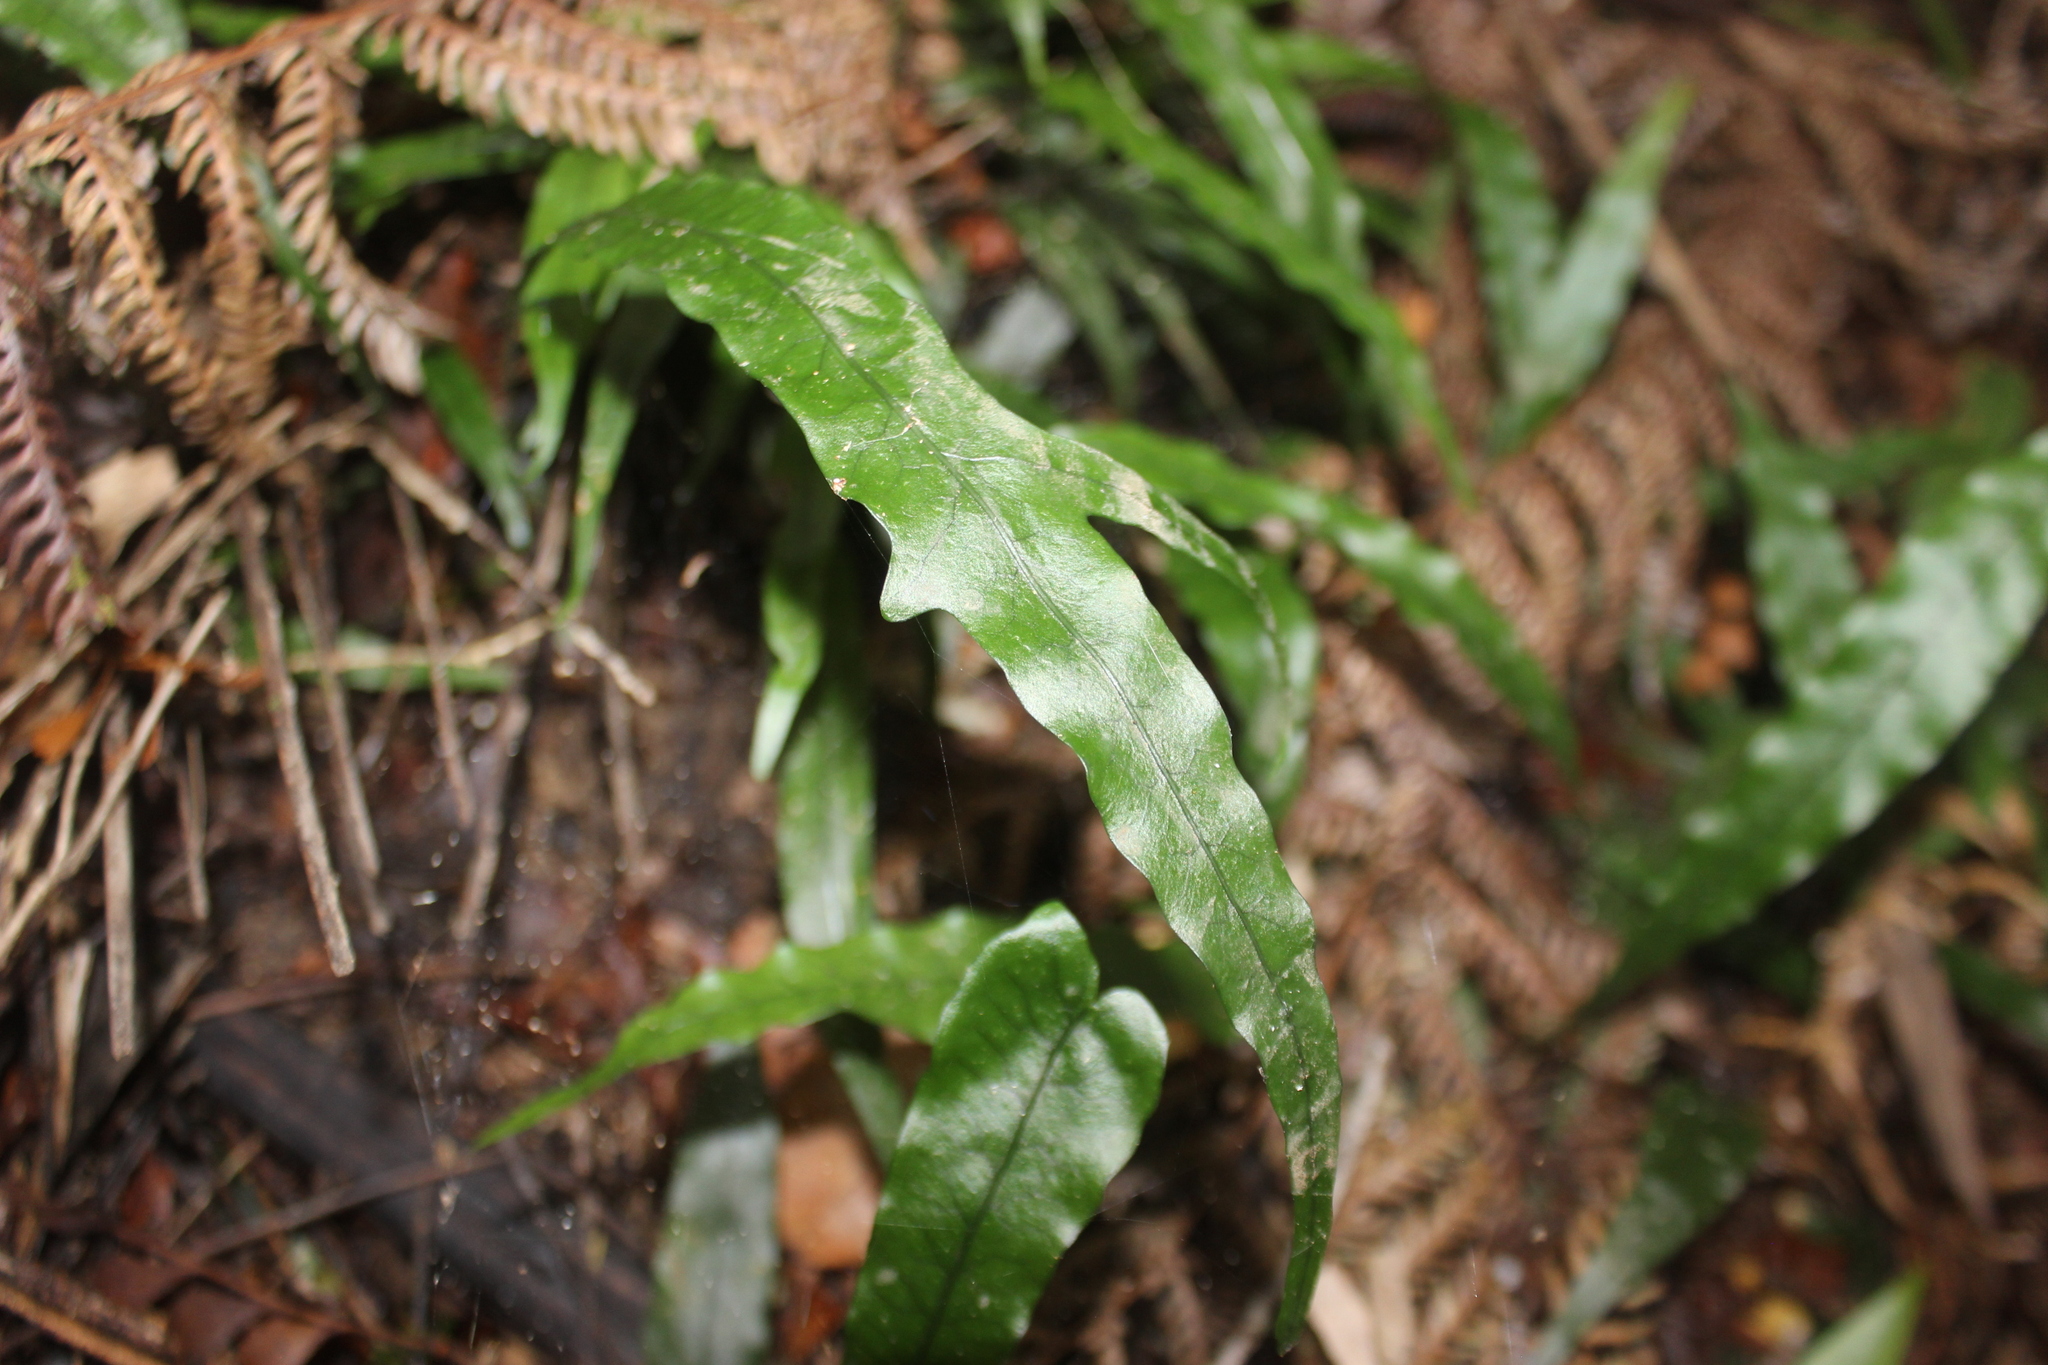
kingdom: Plantae
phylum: Tracheophyta
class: Polypodiopsida
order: Polypodiales
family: Polypodiaceae
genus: Lecanopteris
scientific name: Lecanopteris scandens
